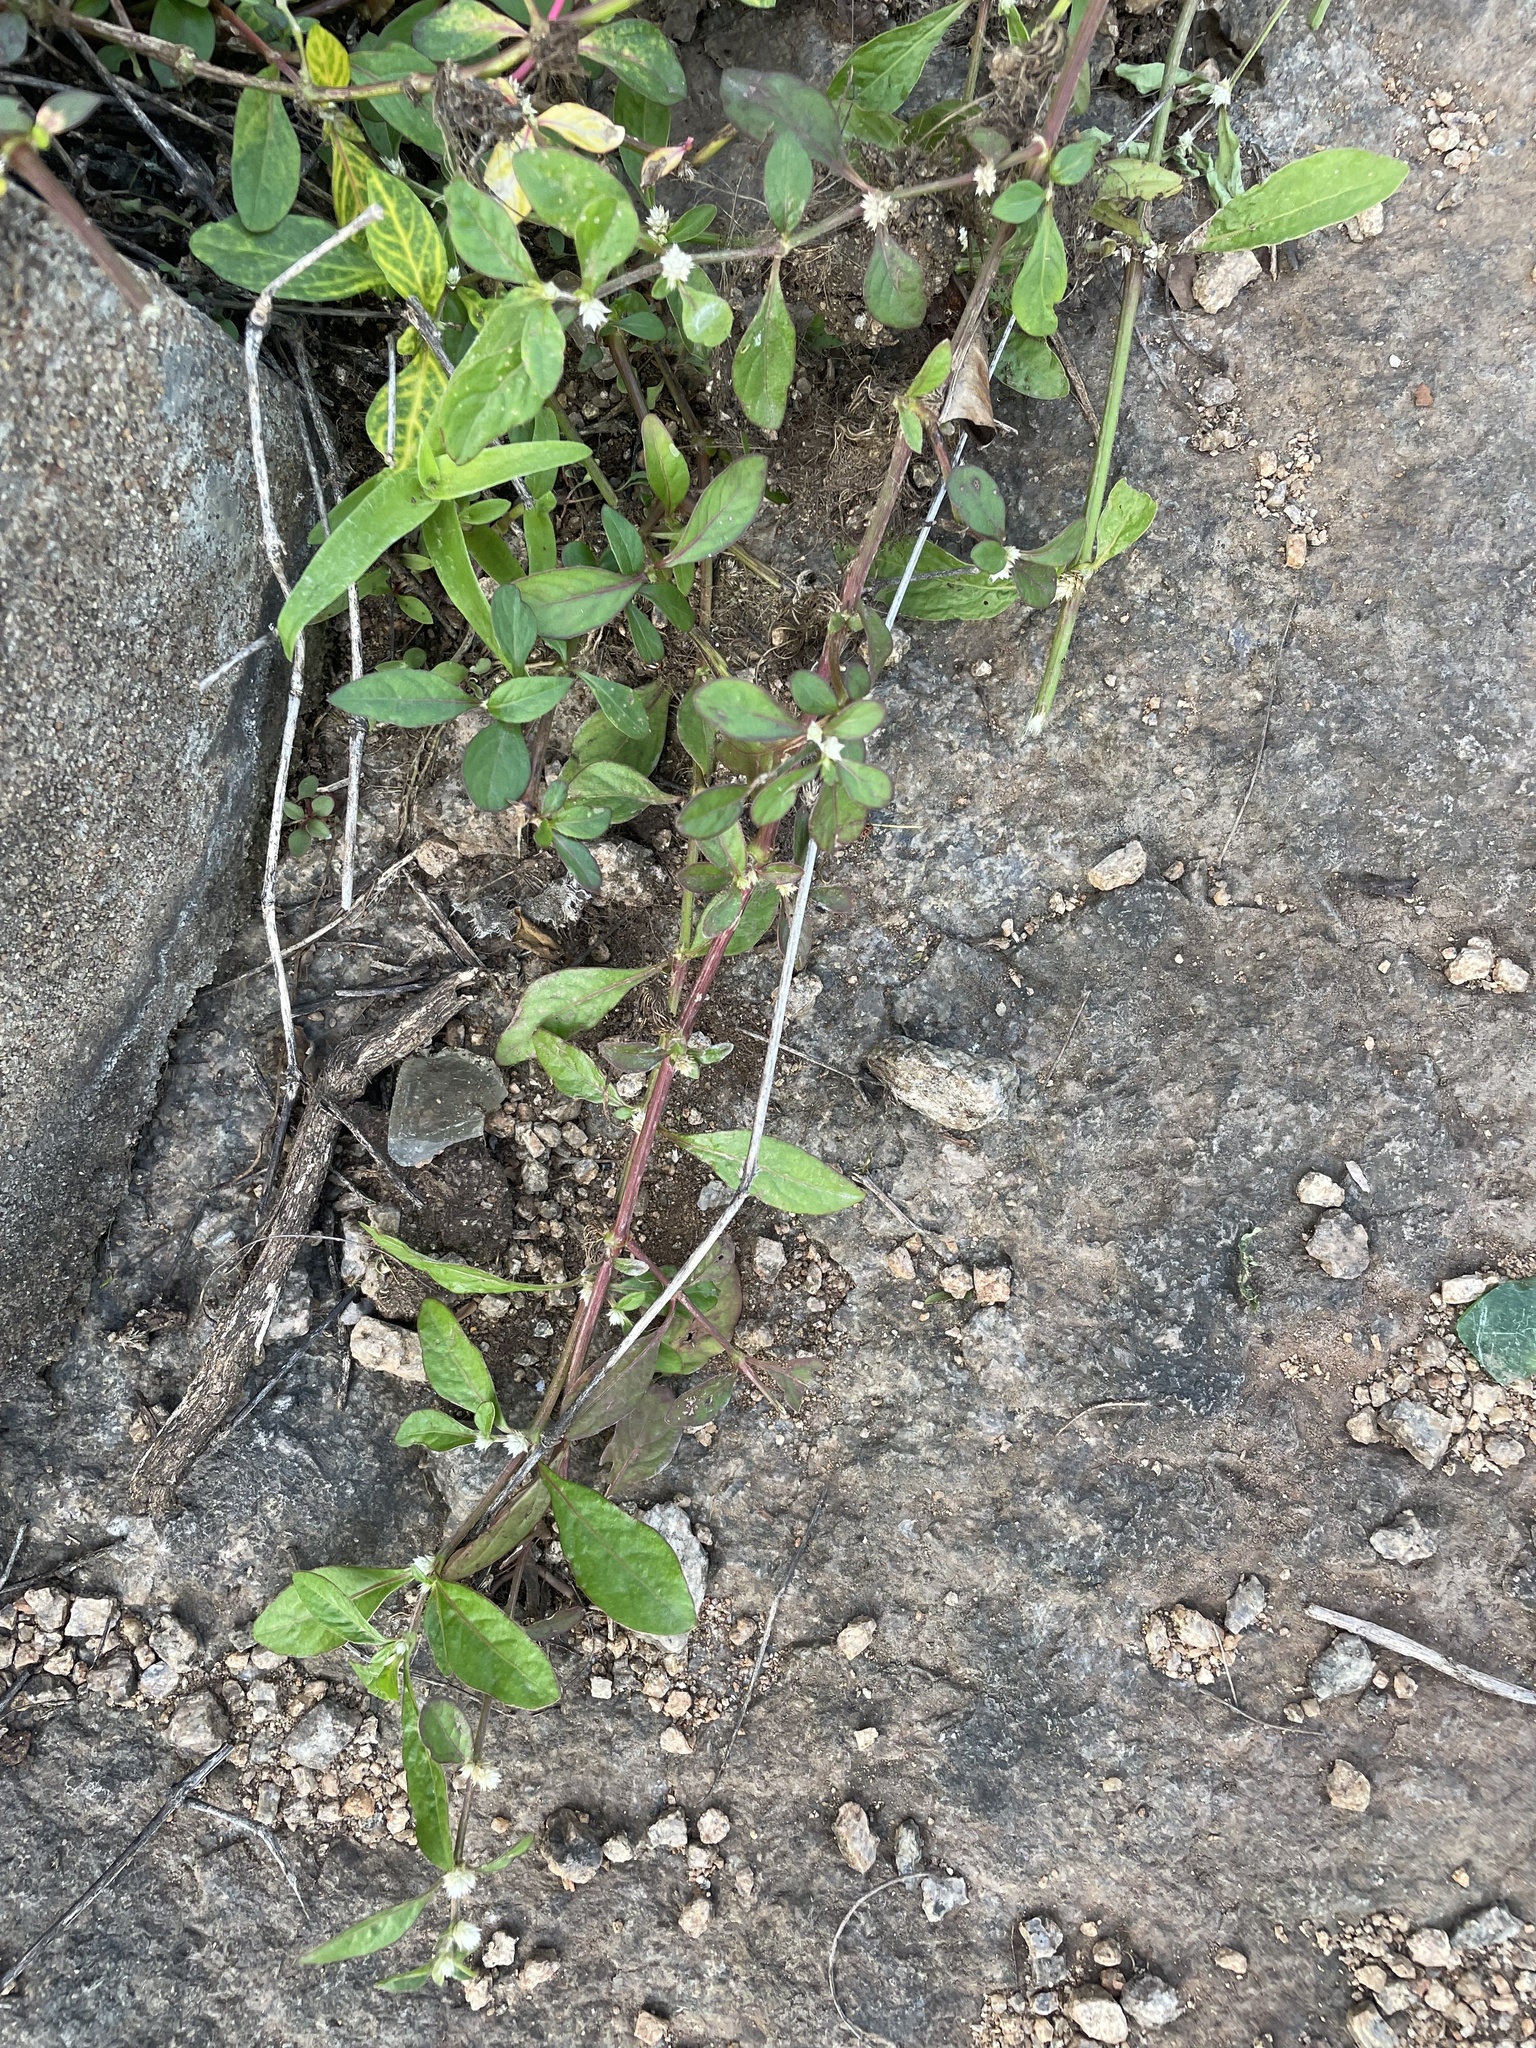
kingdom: Plantae
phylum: Tracheophyta
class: Magnoliopsida
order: Caryophyllales
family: Amaranthaceae
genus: Alternanthera
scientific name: Alternanthera ficoidea
